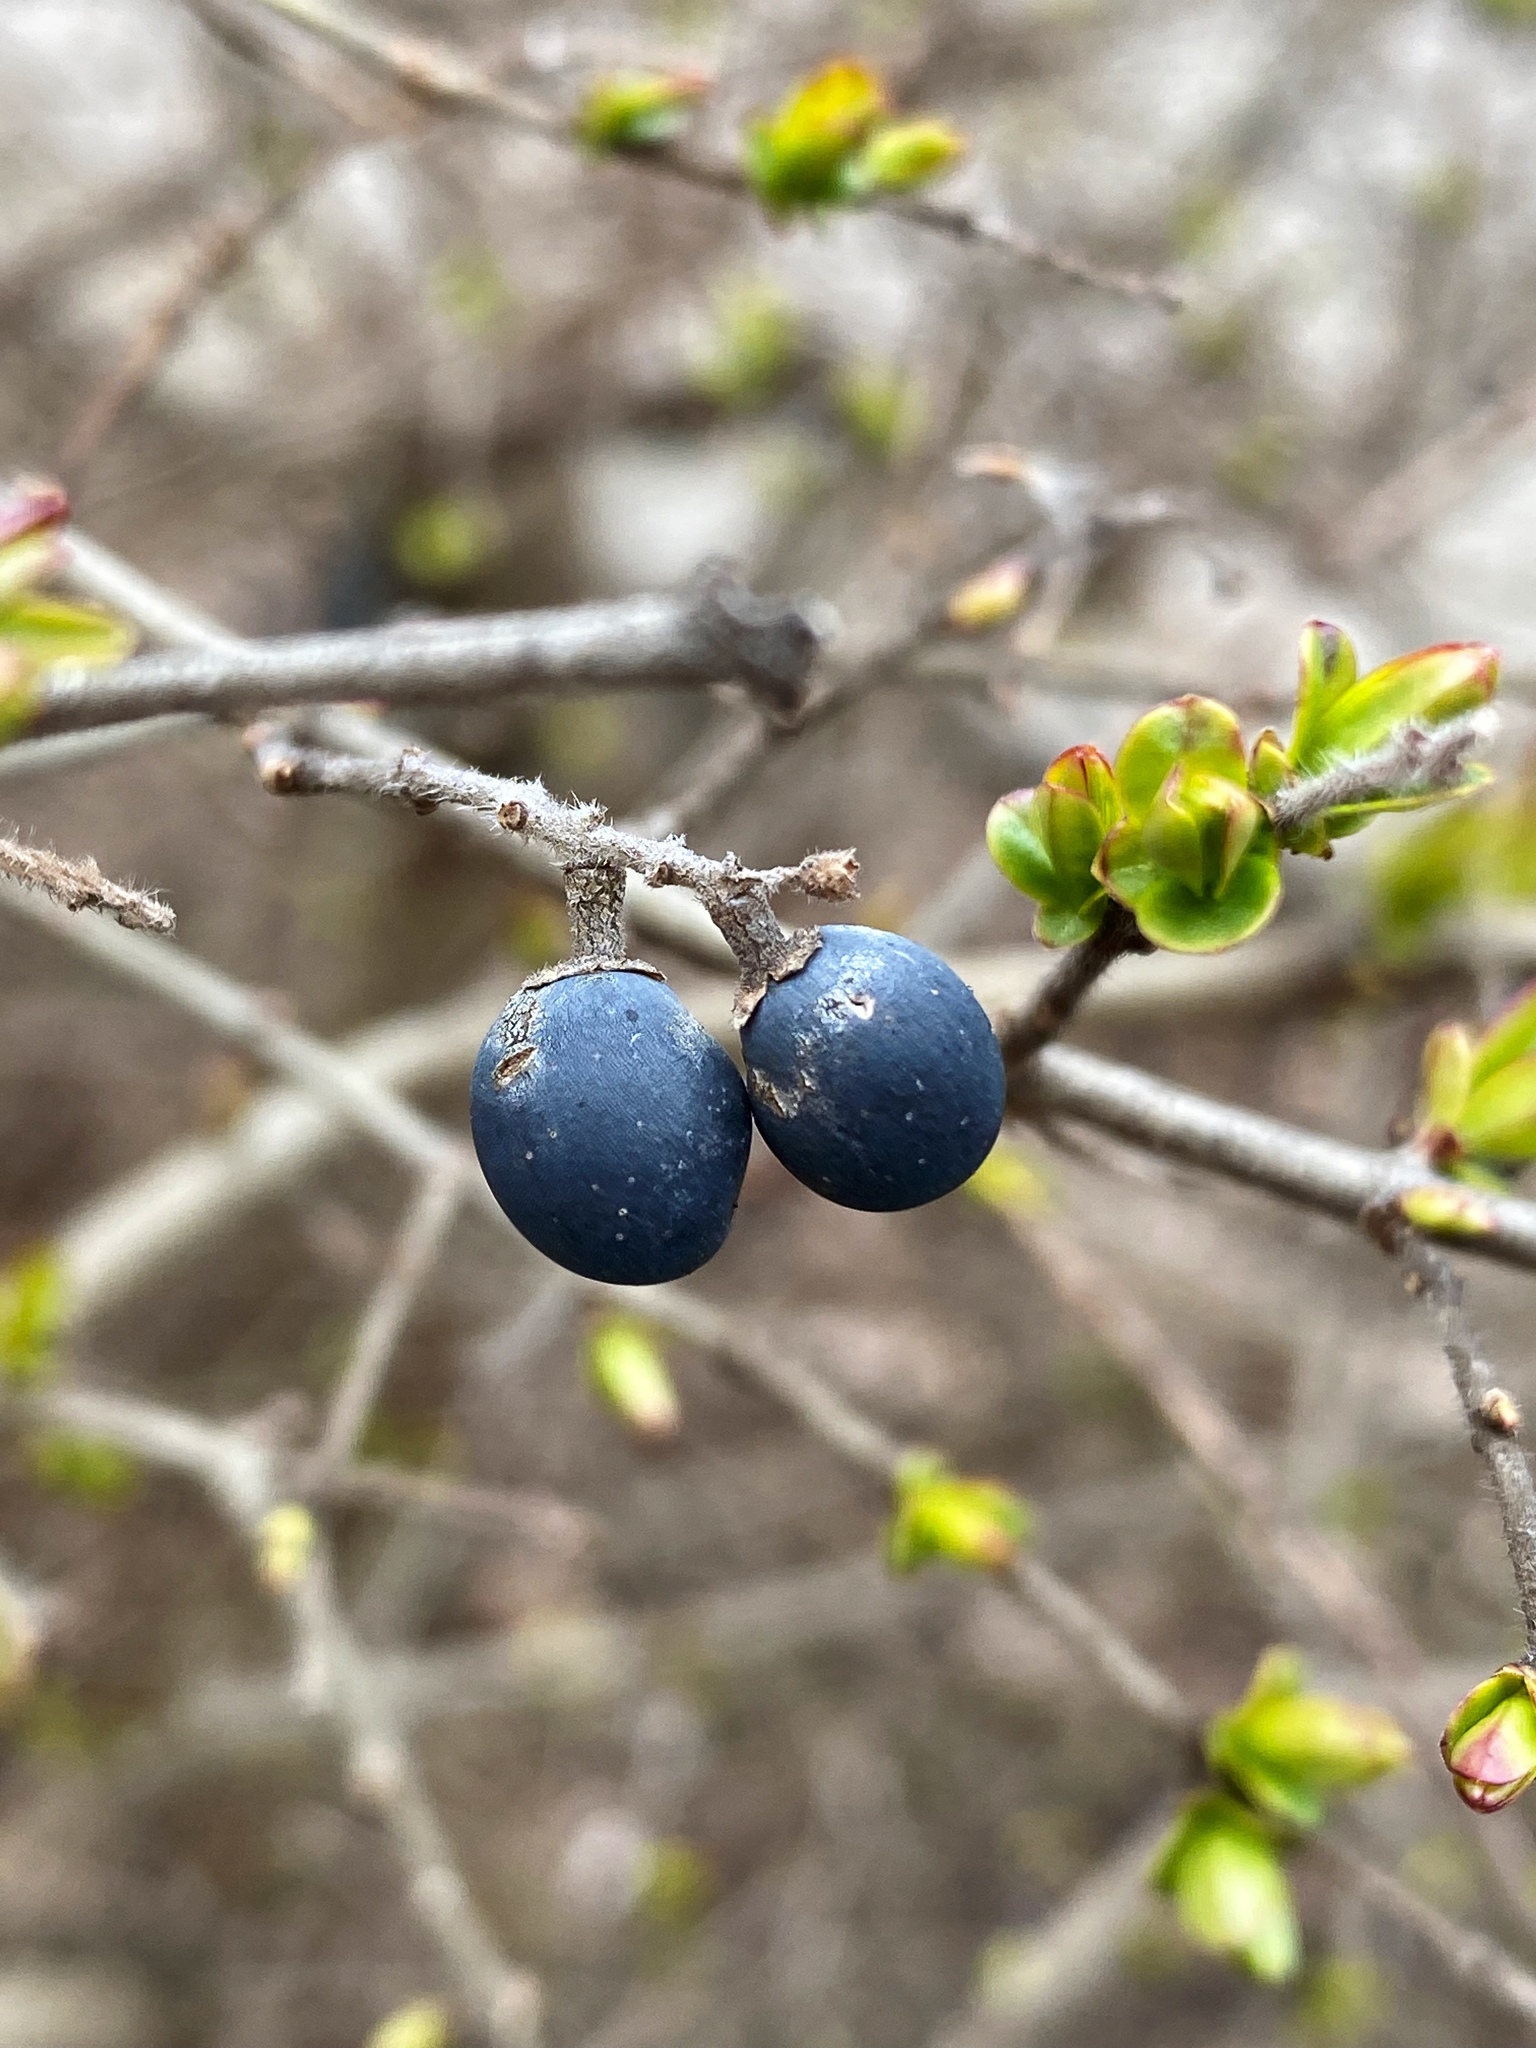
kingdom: Plantae
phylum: Tracheophyta
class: Magnoliopsida
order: Lamiales
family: Oleaceae
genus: Ligustrum
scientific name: Ligustrum obtusifolium
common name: Border privet
